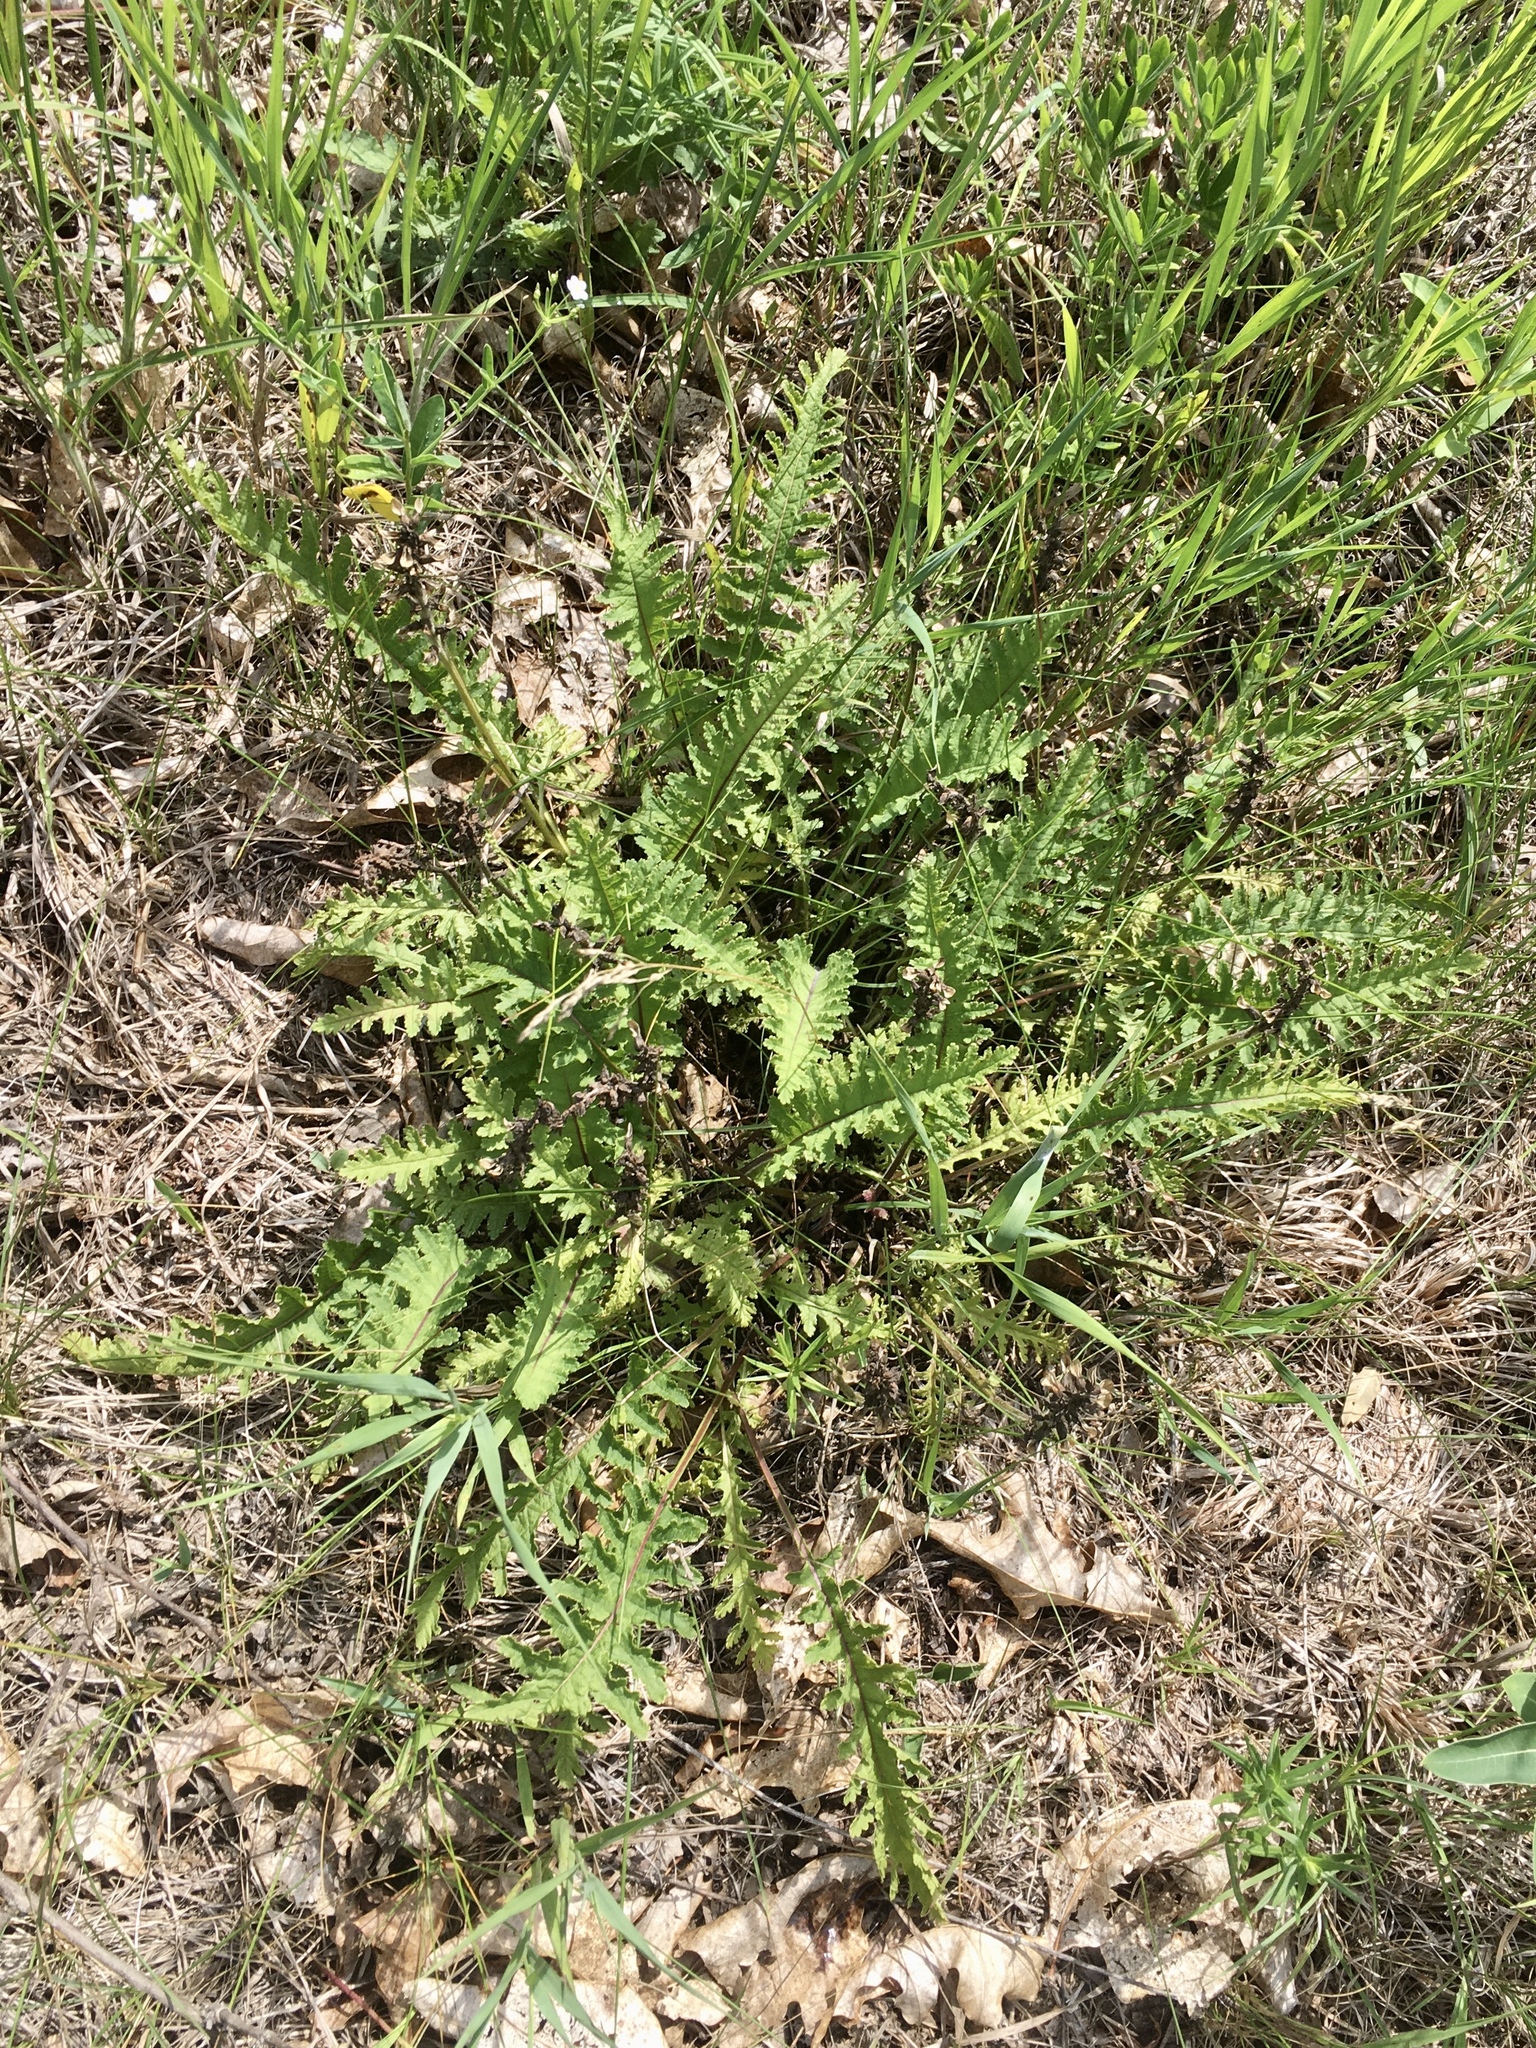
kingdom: Plantae
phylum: Tracheophyta
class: Magnoliopsida
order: Lamiales
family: Orobanchaceae
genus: Pedicularis
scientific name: Pedicularis canadensis
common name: Early lousewort
